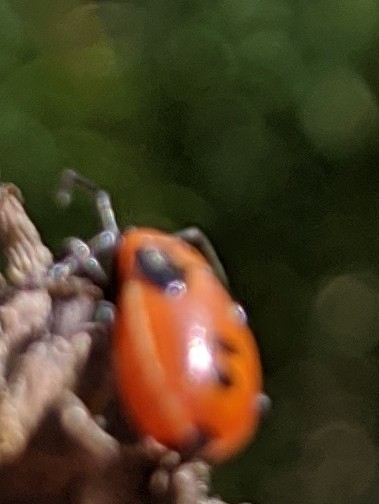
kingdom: Animalia
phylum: Arthropoda
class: Insecta
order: Hemiptera
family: Lygaeidae
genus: Lygaeus
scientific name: Lygaeus turcicus
